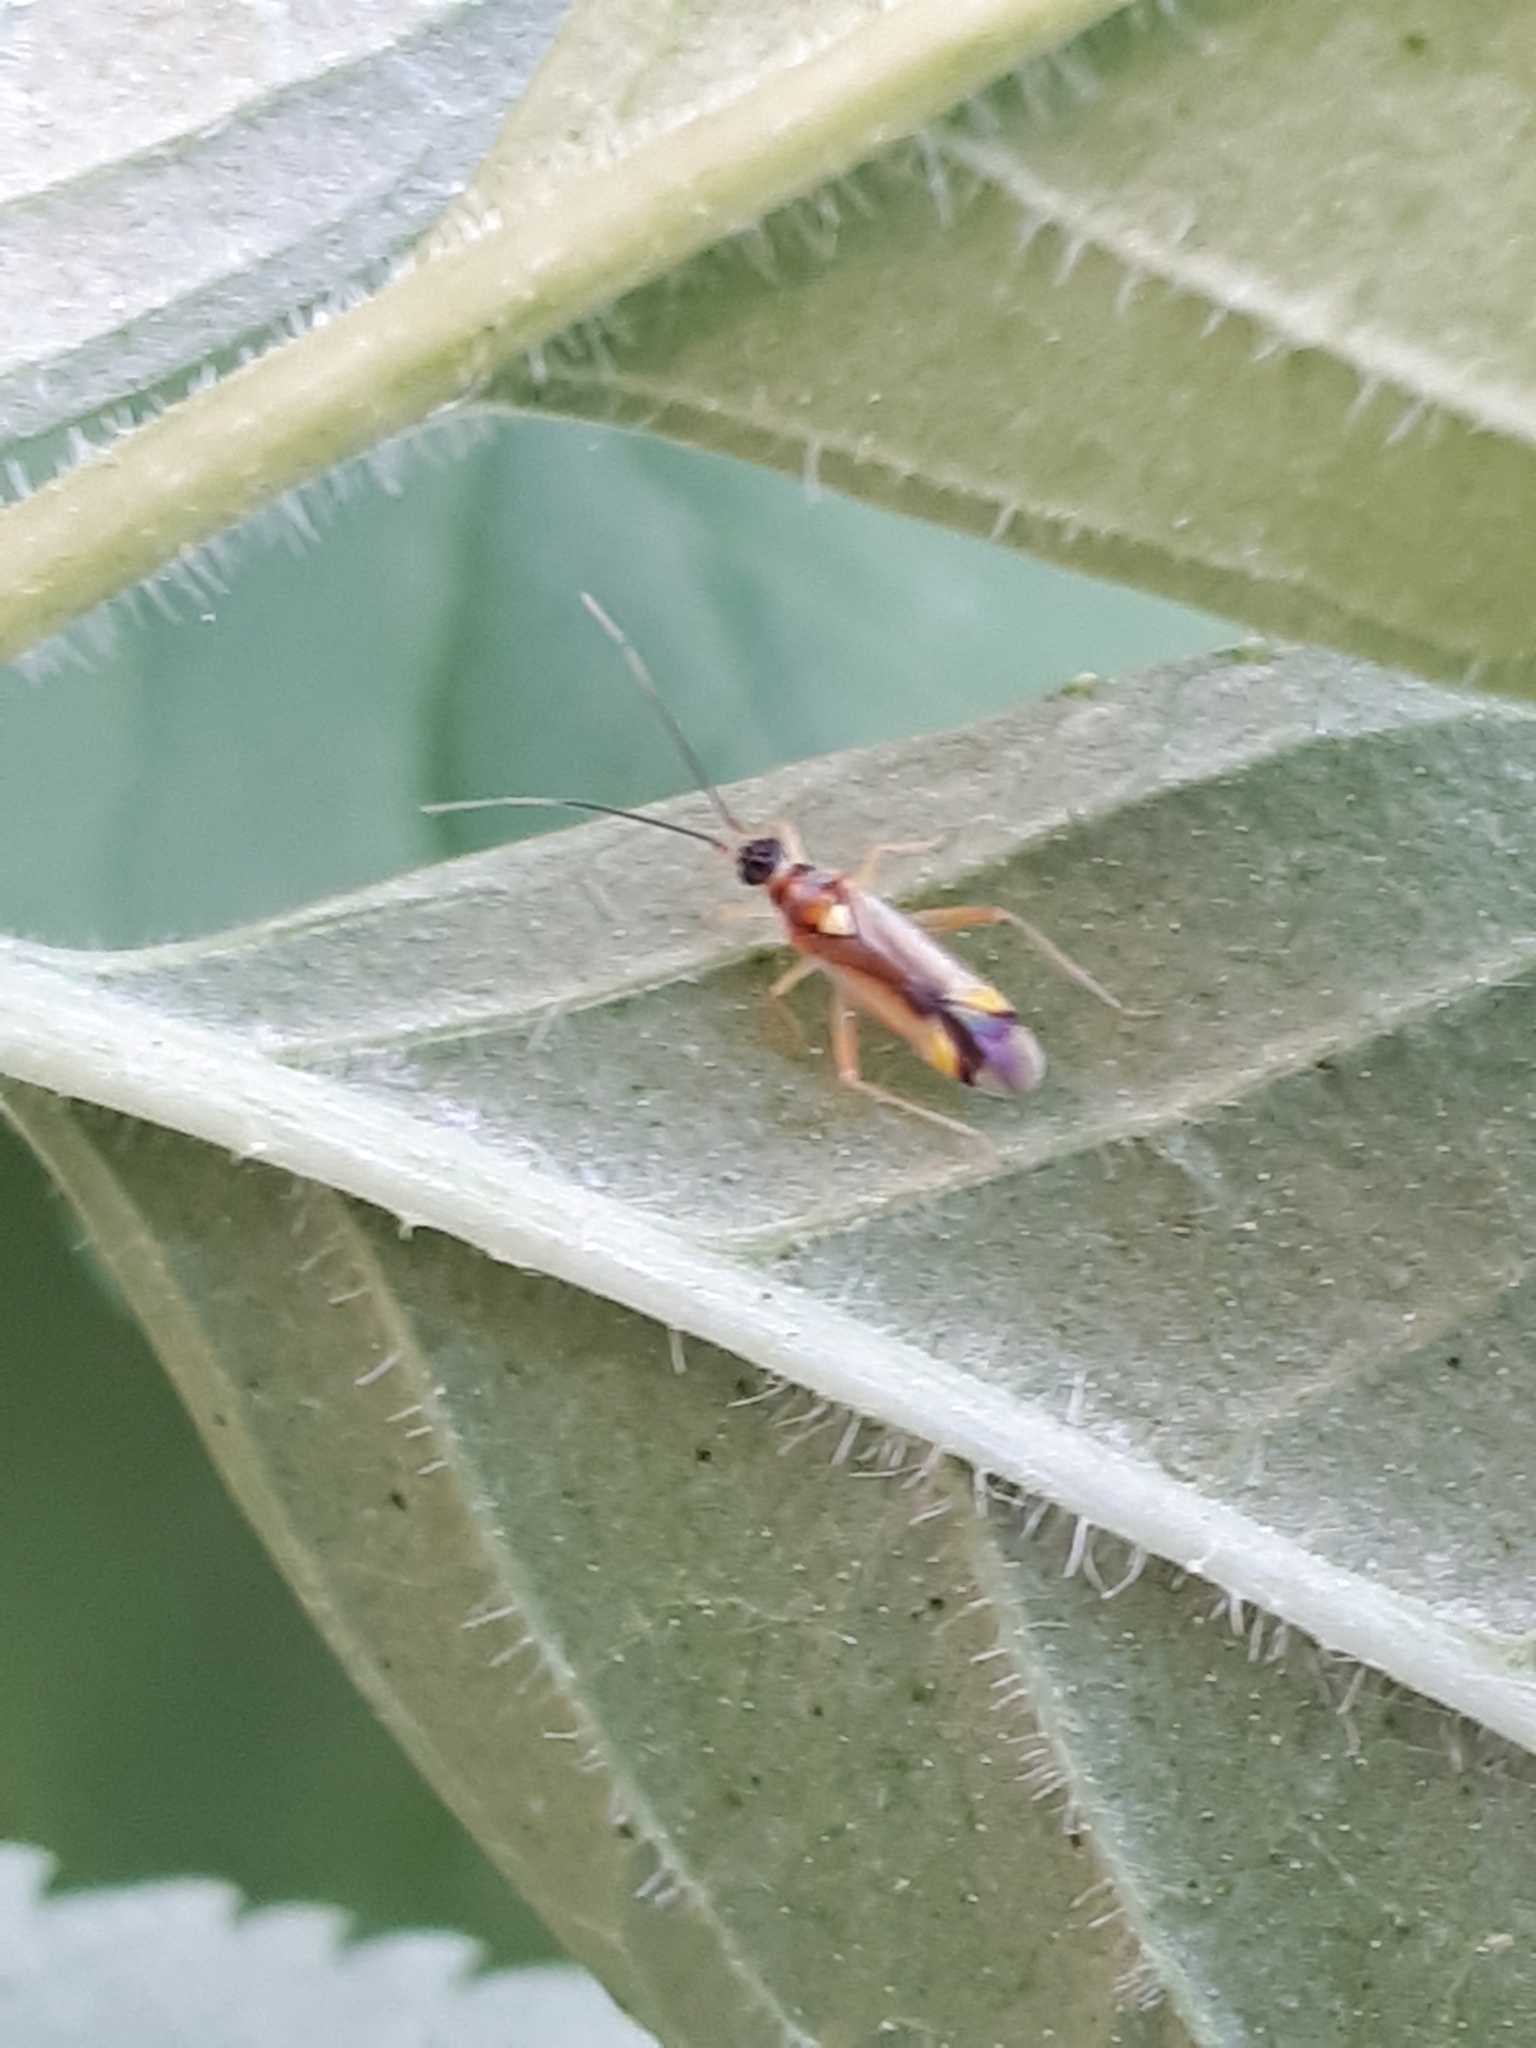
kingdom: Animalia
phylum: Arthropoda
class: Insecta
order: Hemiptera
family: Miridae
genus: Campyloneura
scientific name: Campyloneura virgula
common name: Predatory bug
